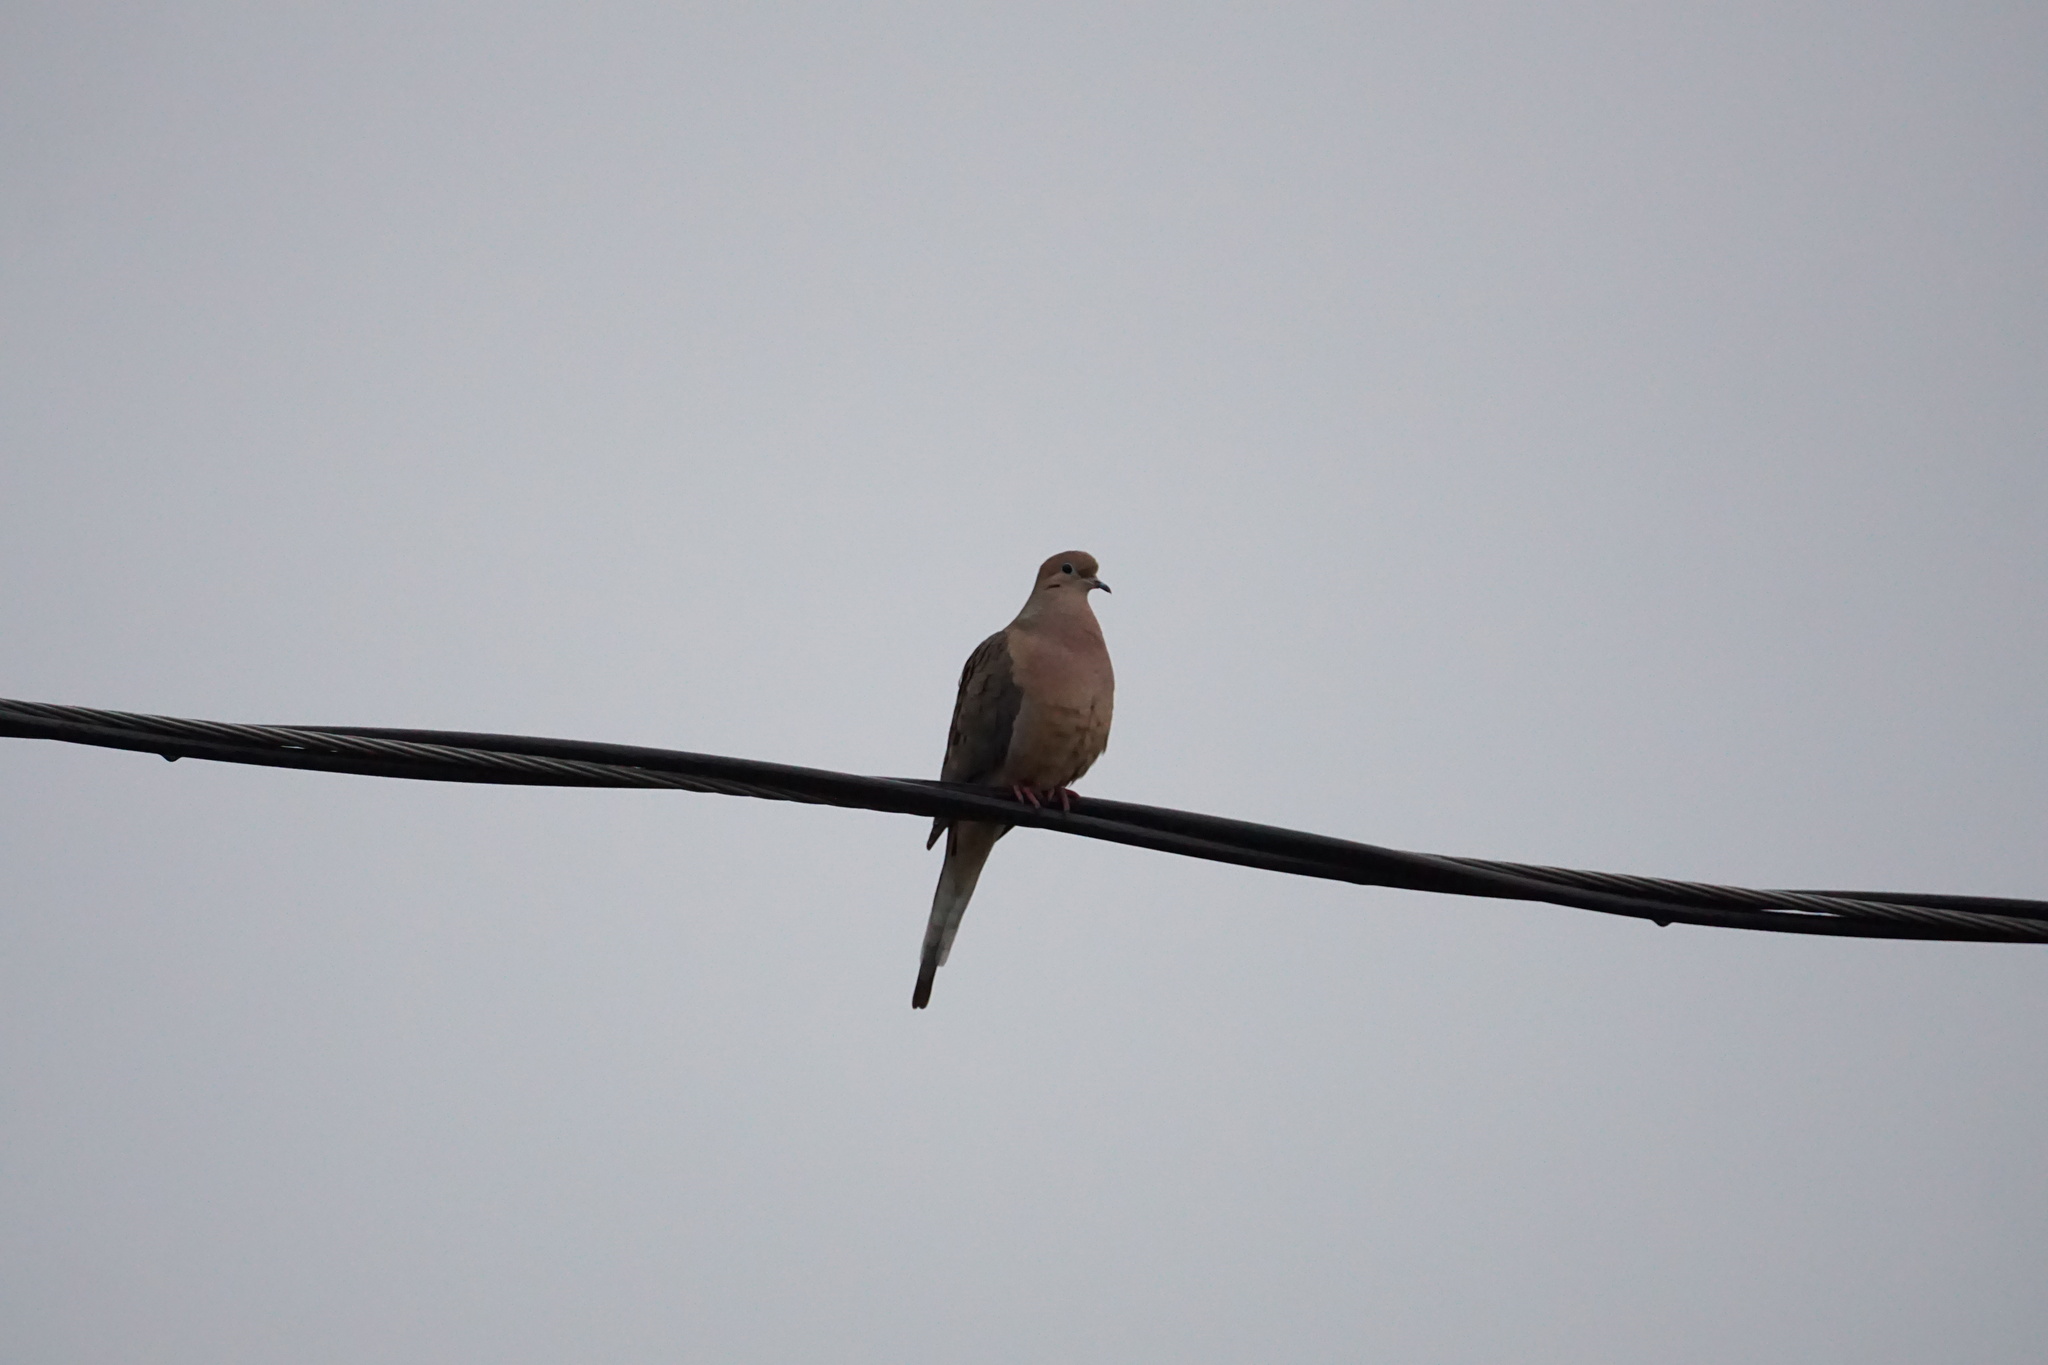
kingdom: Animalia
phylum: Chordata
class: Aves
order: Columbiformes
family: Columbidae
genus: Zenaida
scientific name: Zenaida macroura
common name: Mourning dove
